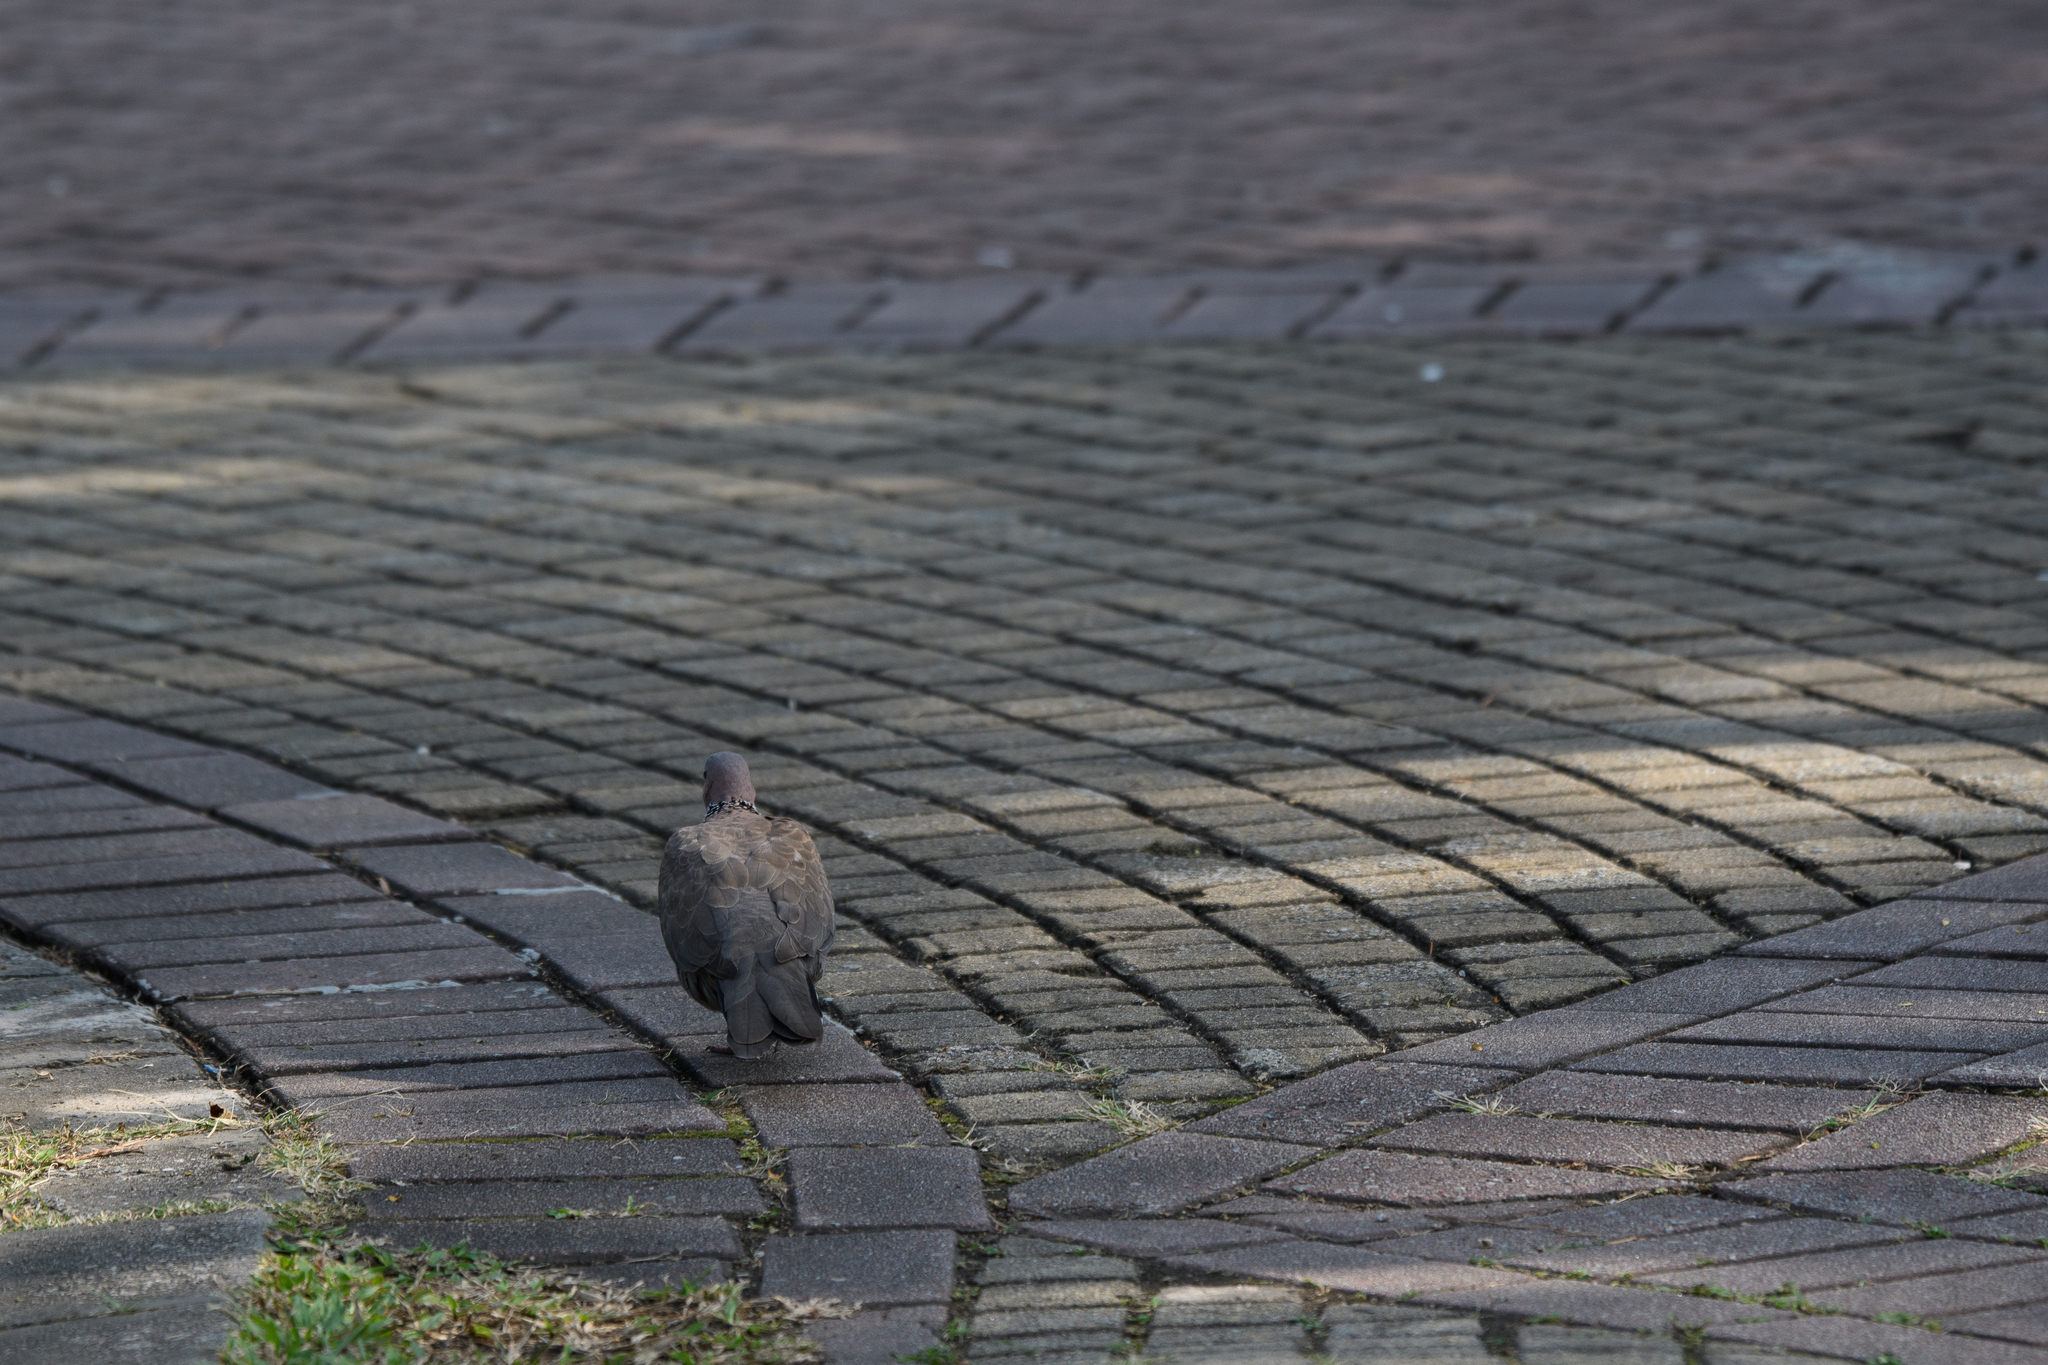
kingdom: Animalia
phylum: Chordata
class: Aves
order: Columbiformes
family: Columbidae
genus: Spilopelia
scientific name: Spilopelia chinensis
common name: Spotted dove
